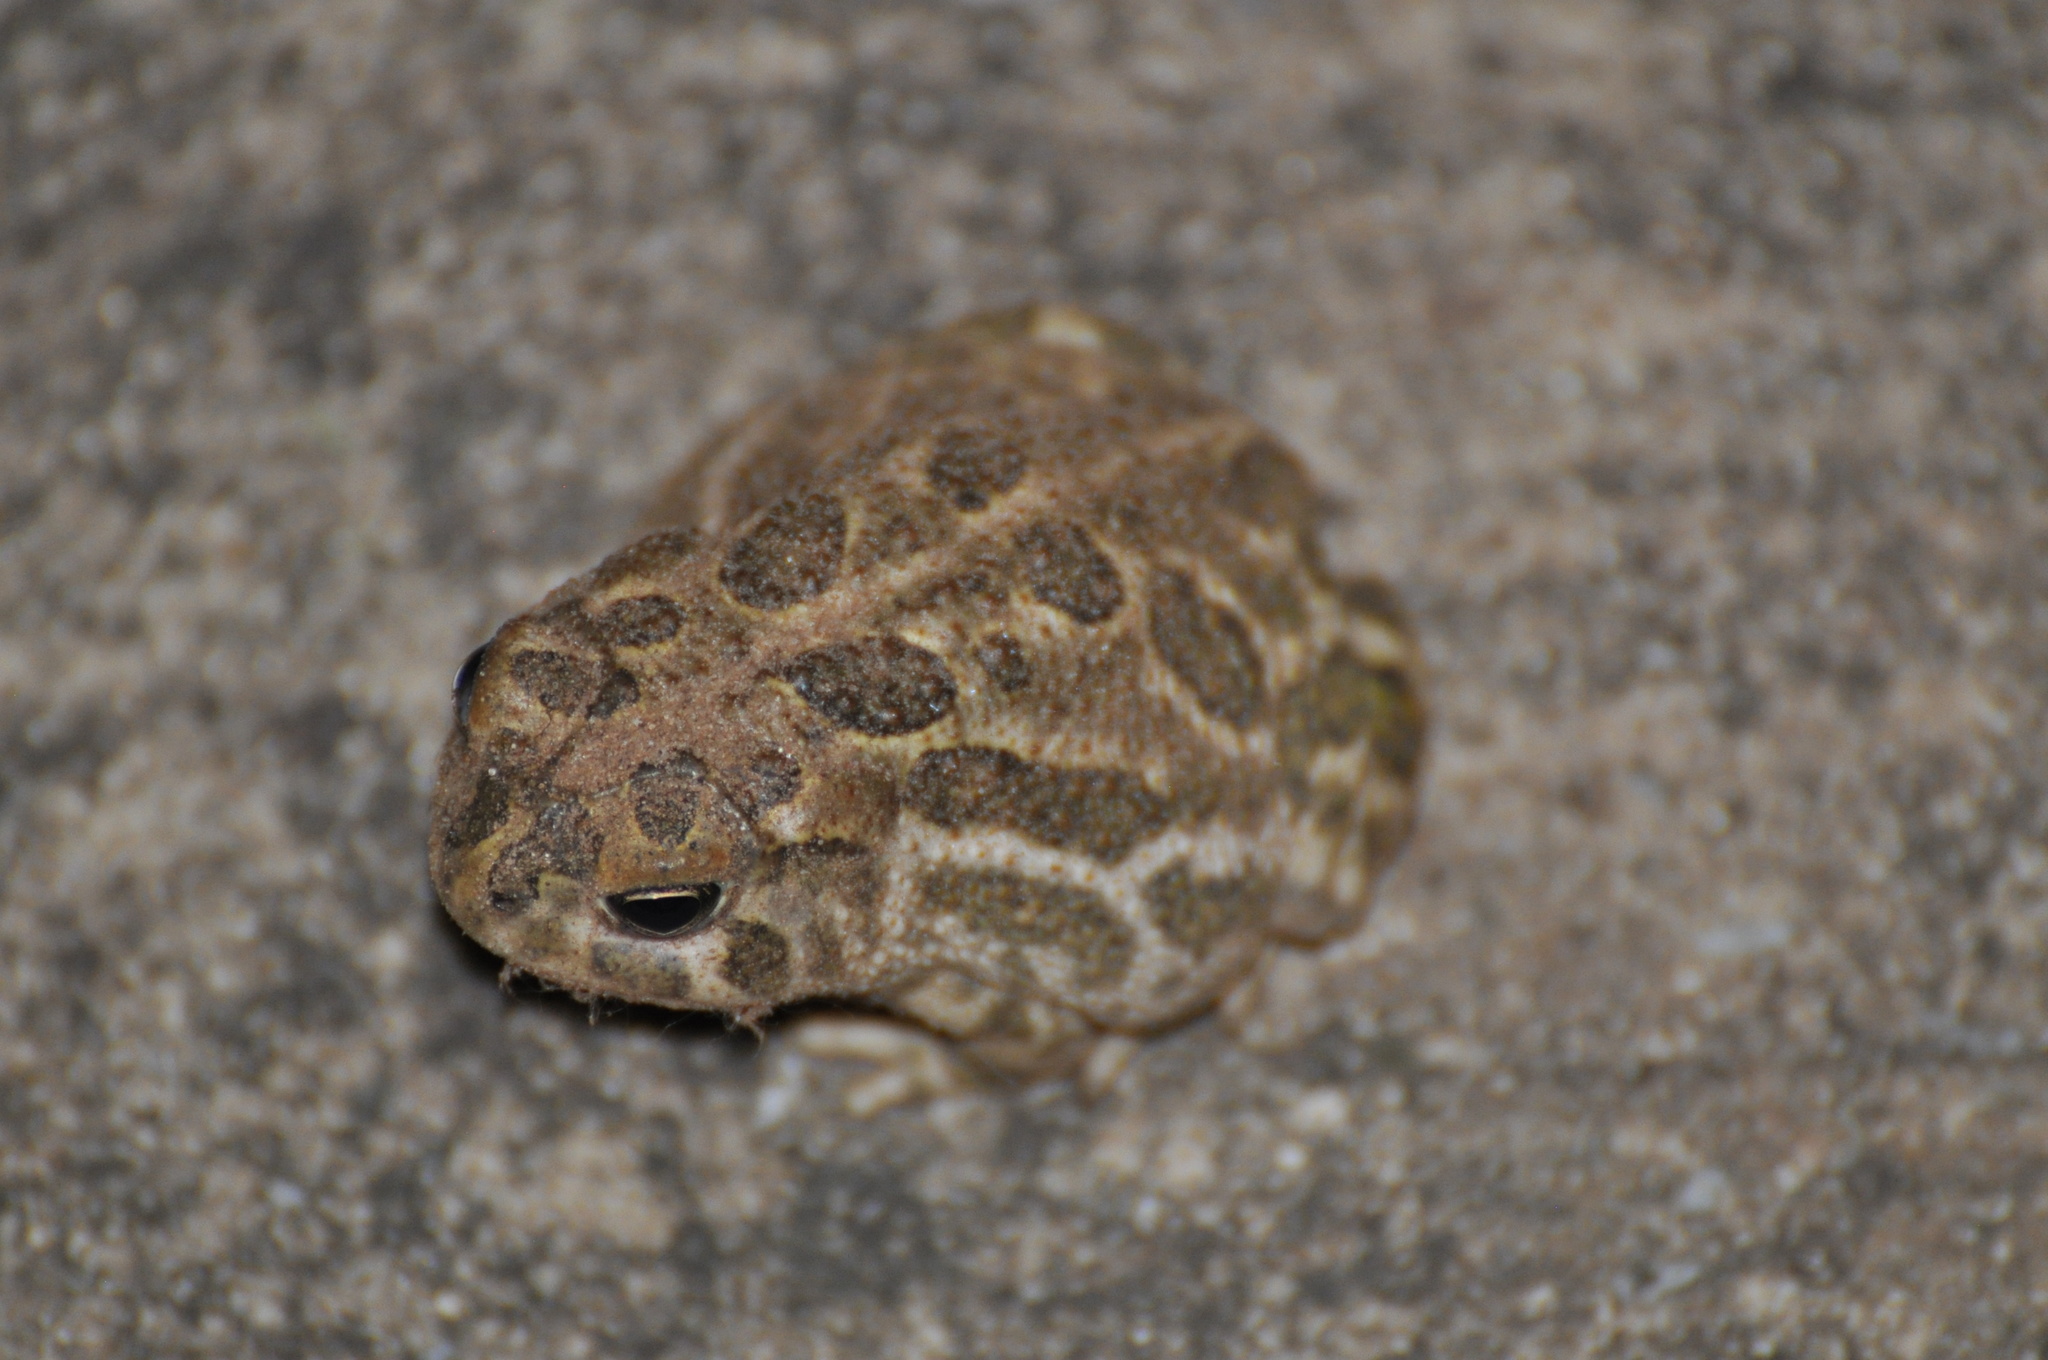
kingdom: Animalia
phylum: Chordata
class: Amphibia
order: Anura
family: Bufonidae
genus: Anaxyrus
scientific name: Anaxyrus cognatus
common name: Great plains toad
